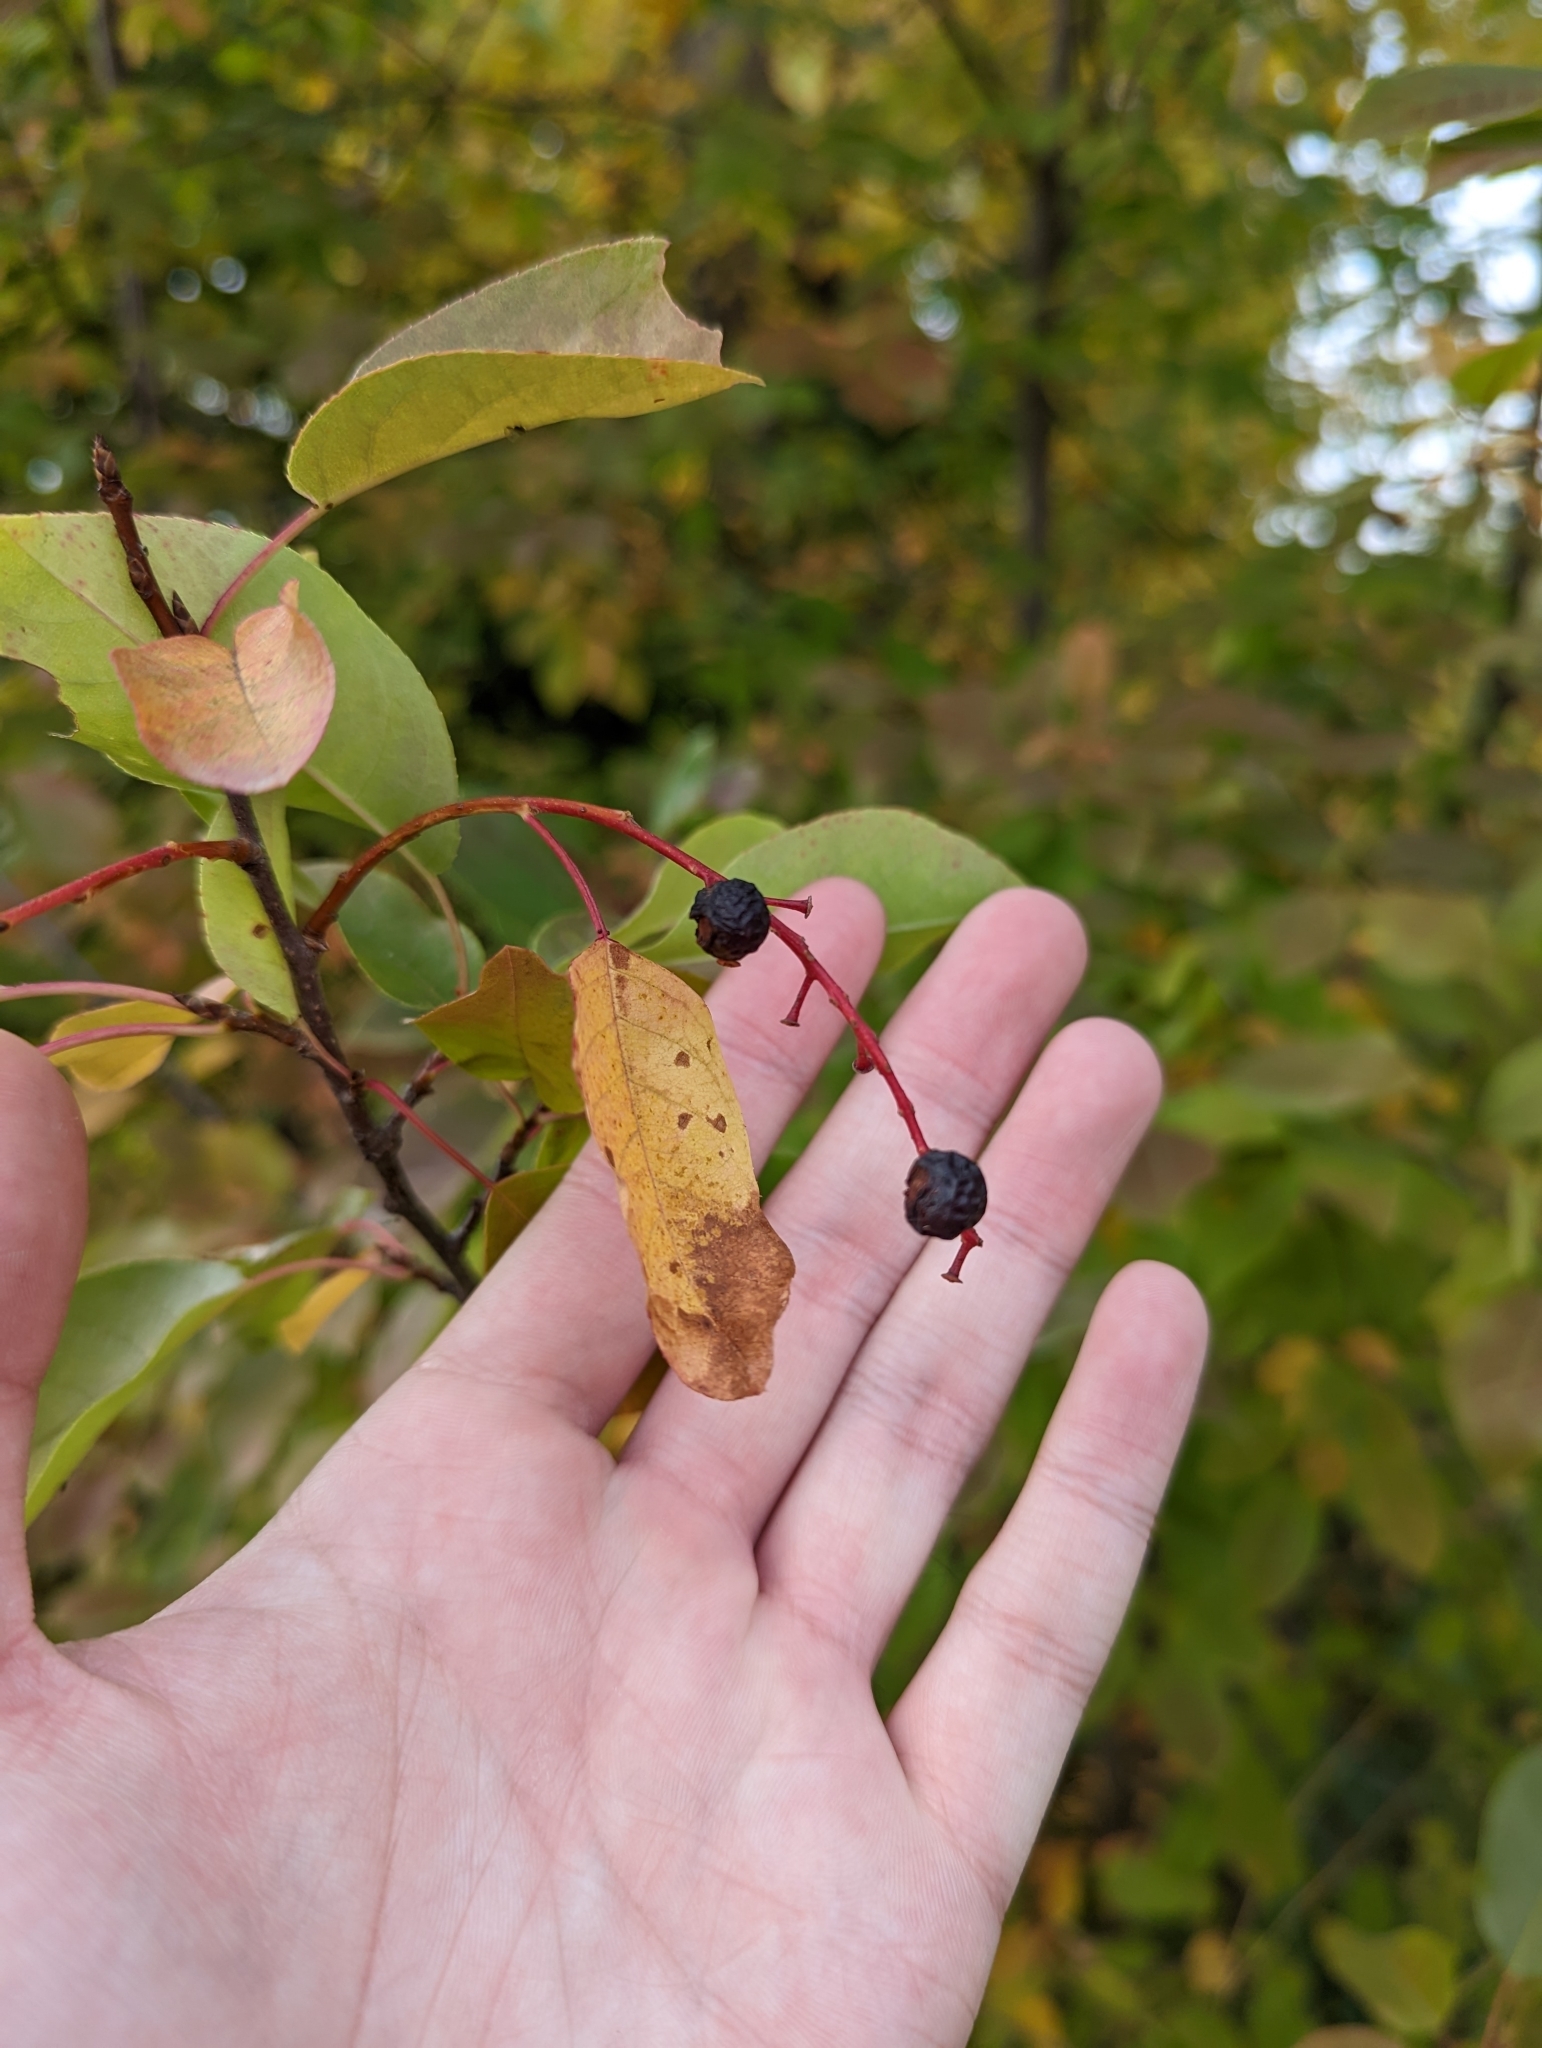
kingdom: Plantae
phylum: Tracheophyta
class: Magnoliopsida
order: Rosales
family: Rosaceae
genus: Prunus
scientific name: Prunus virginiana
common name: Chokecherry
